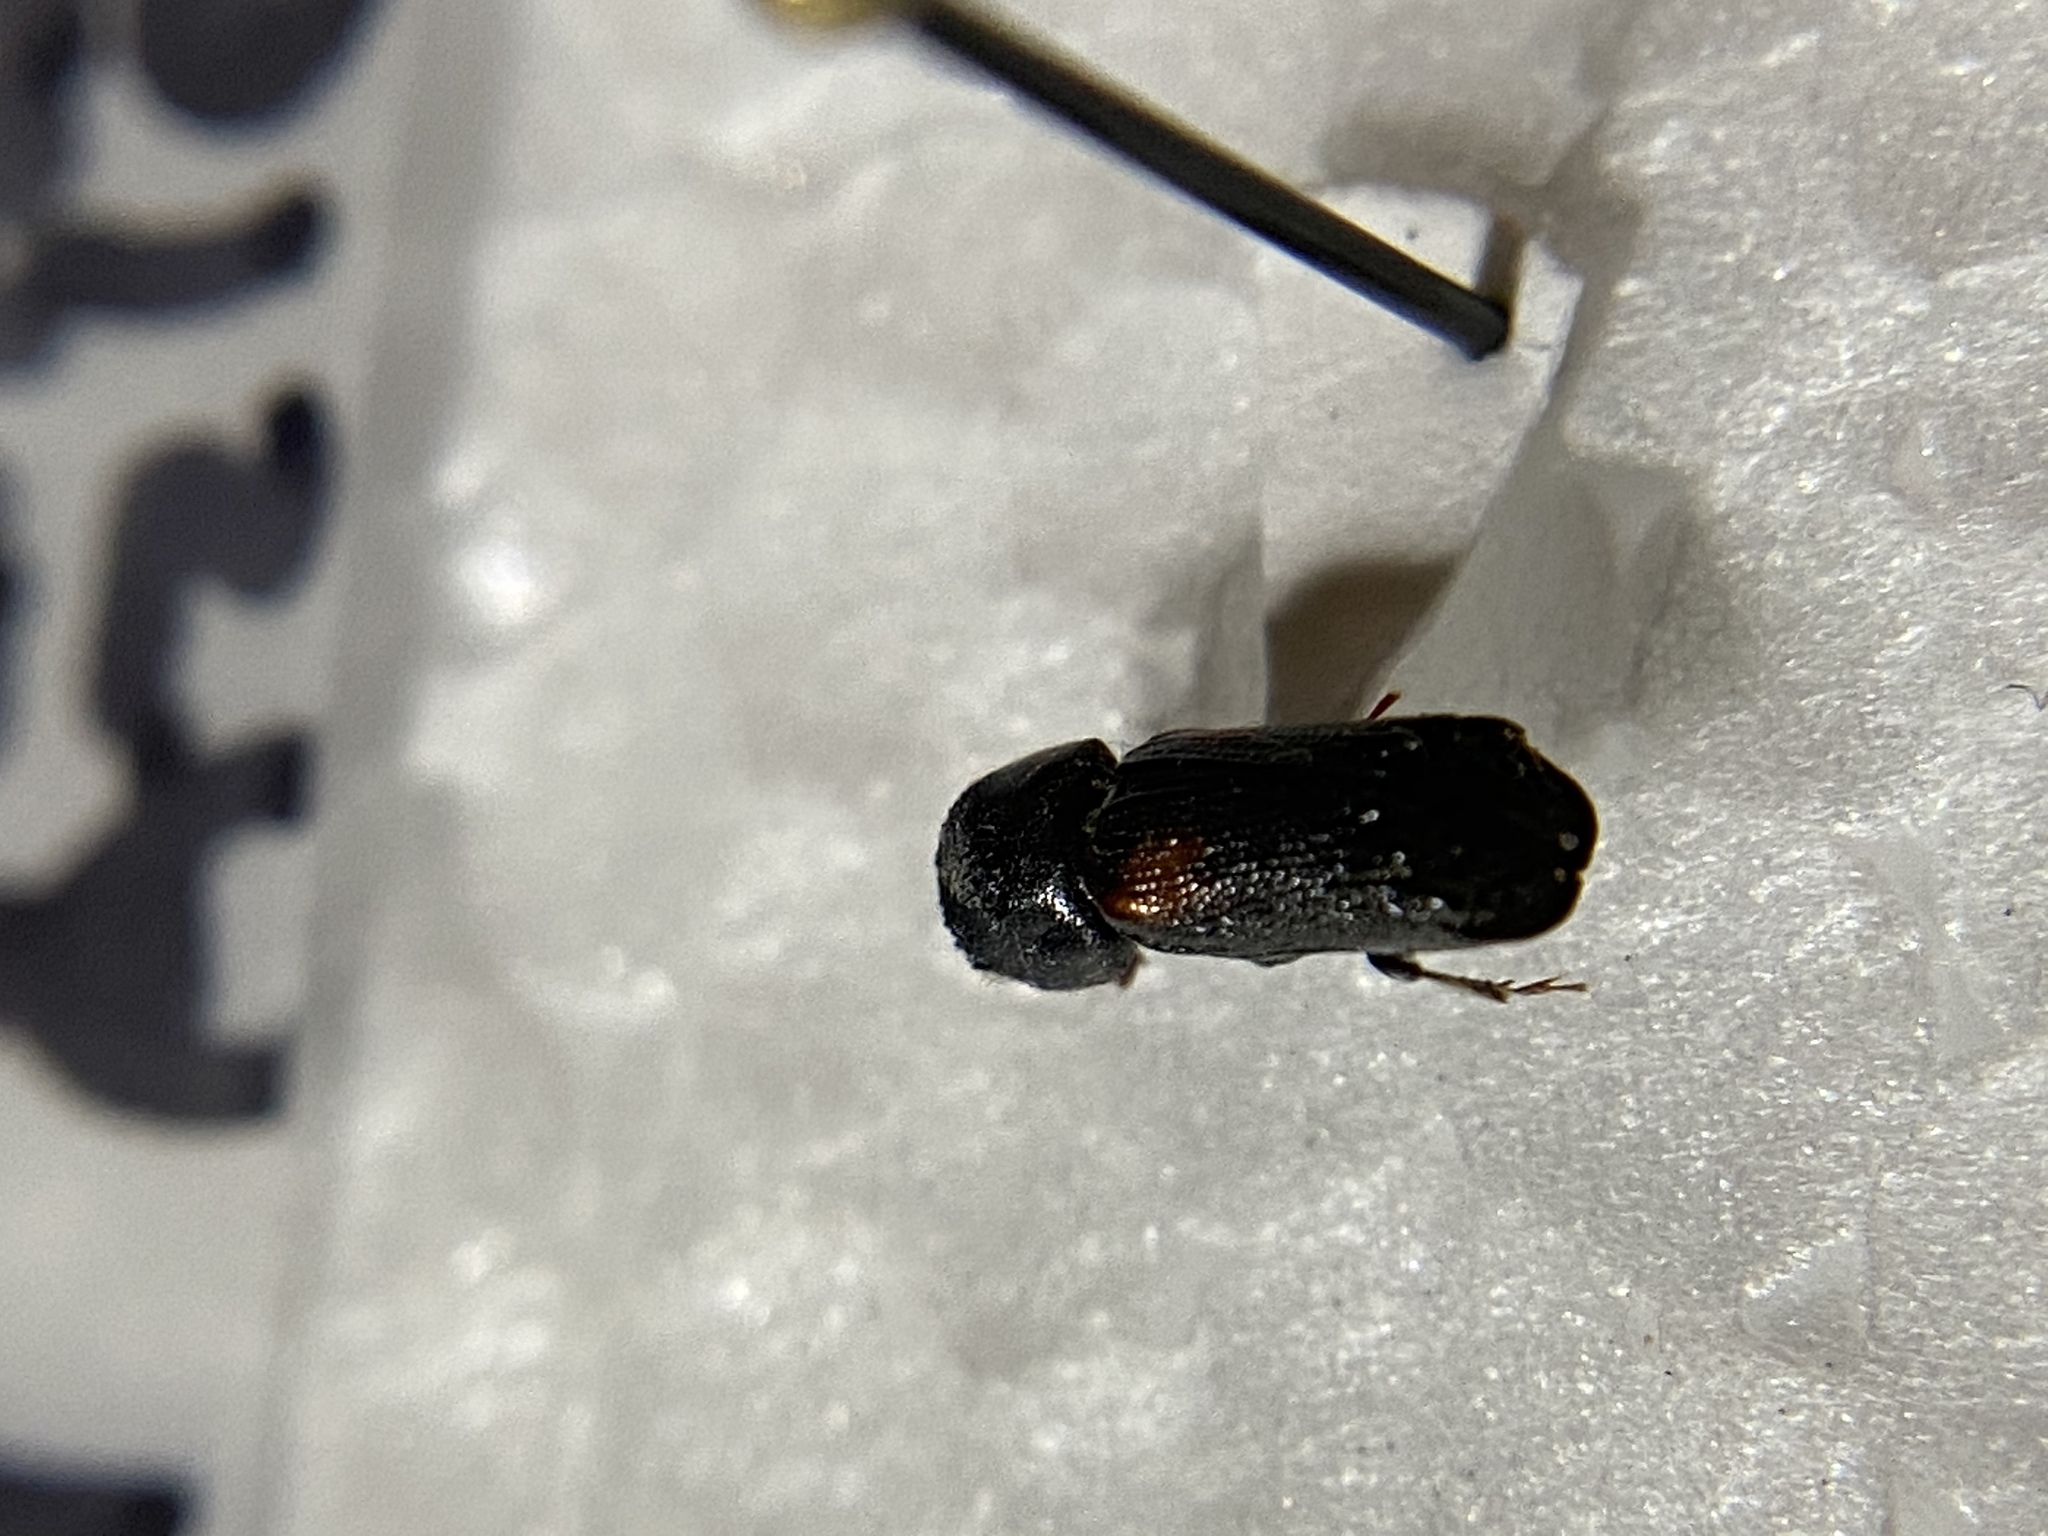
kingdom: Animalia
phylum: Arthropoda
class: Insecta
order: Coleoptera
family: Bostrichidae
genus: Xylobiops
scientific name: Xylobiops basilaris
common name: Red-shouldered bostrichid
